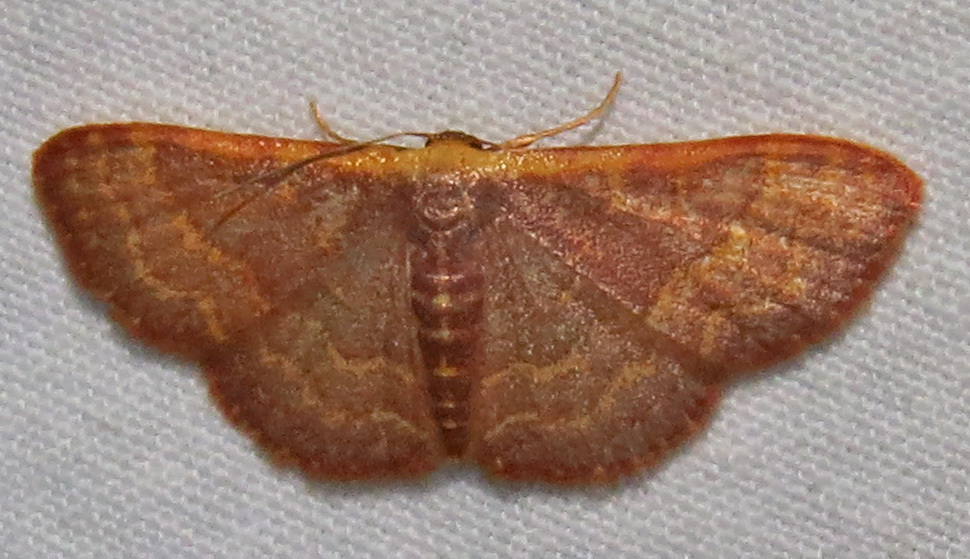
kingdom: Animalia
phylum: Arthropoda
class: Insecta
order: Lepidoptera
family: Geometridae
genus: Leptostales
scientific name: Leptostales pannaria
